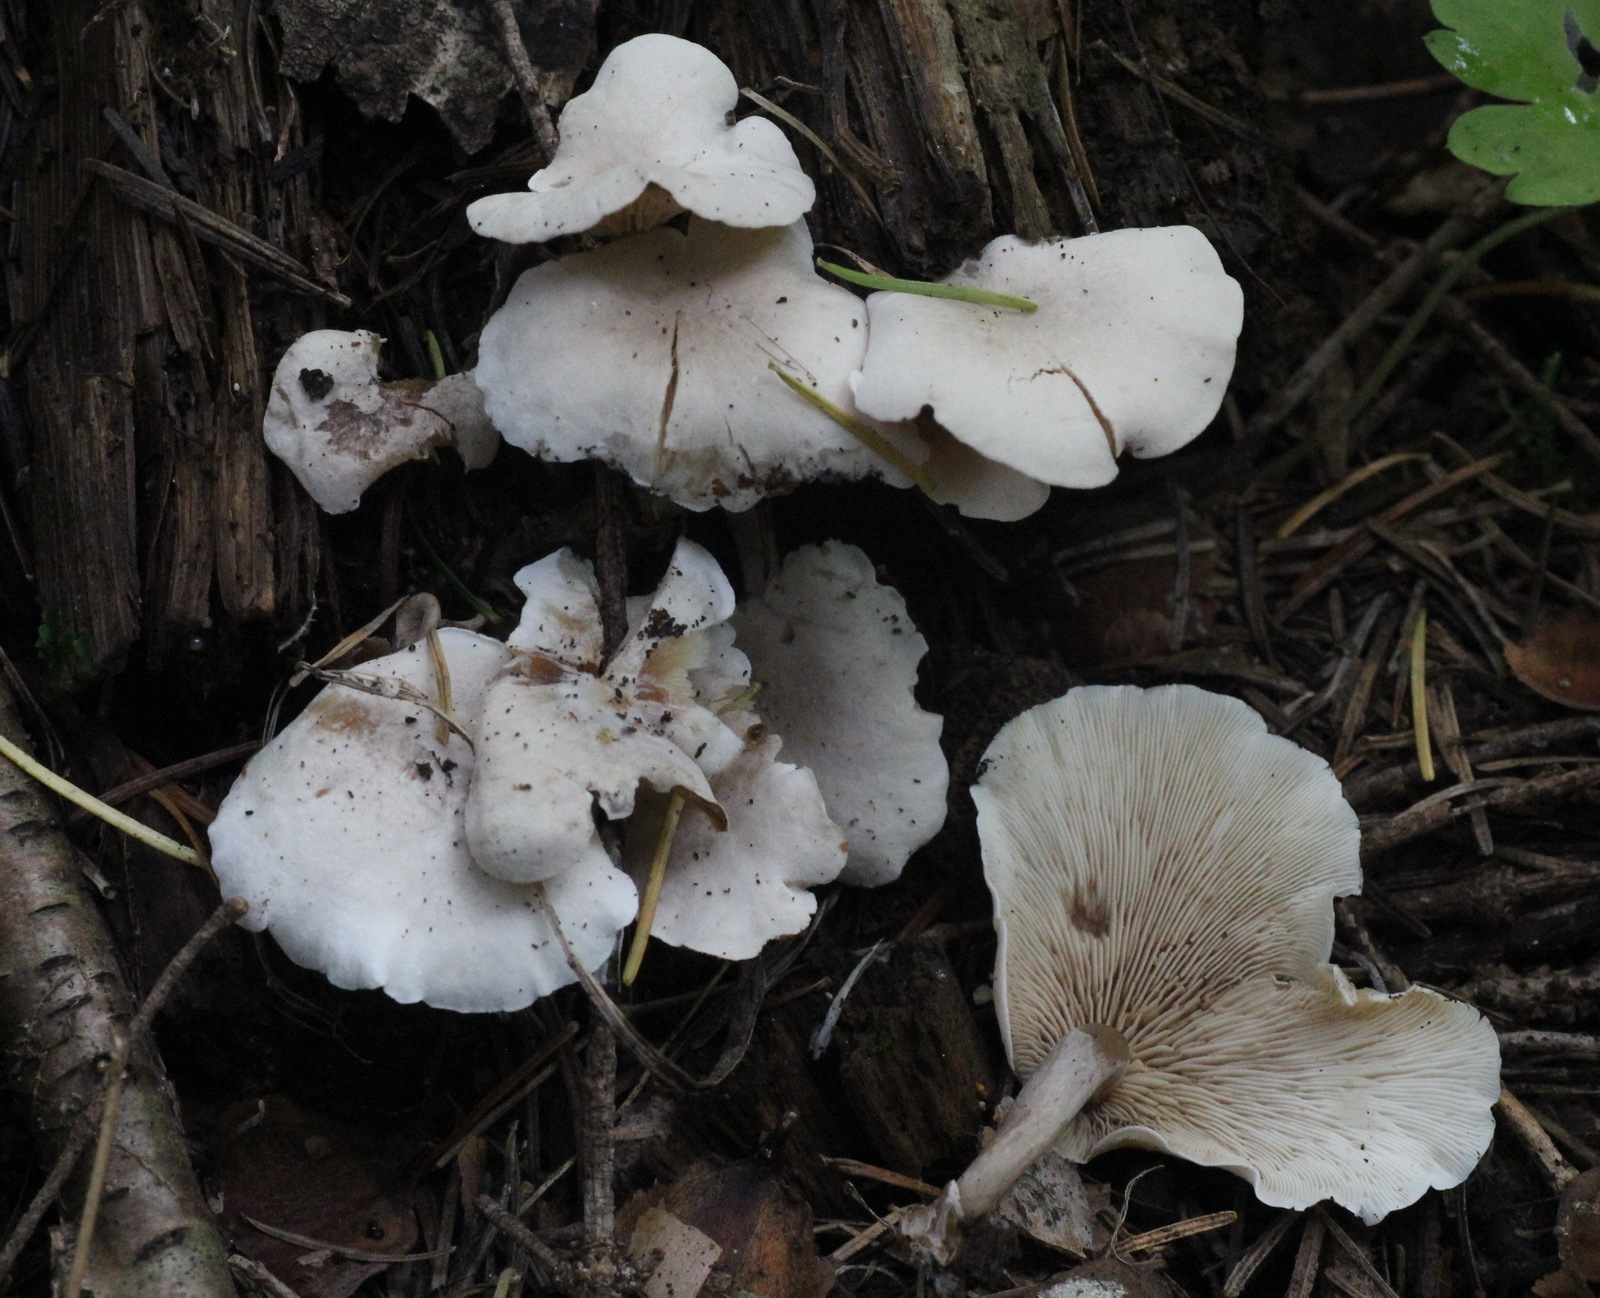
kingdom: Fungi
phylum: Basidiomycota
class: Agaricomycetes
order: Agaricales
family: Lyophyllaceae
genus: Ossicaulis
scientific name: Ossicaulis lignatilis
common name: Mealy oyster
